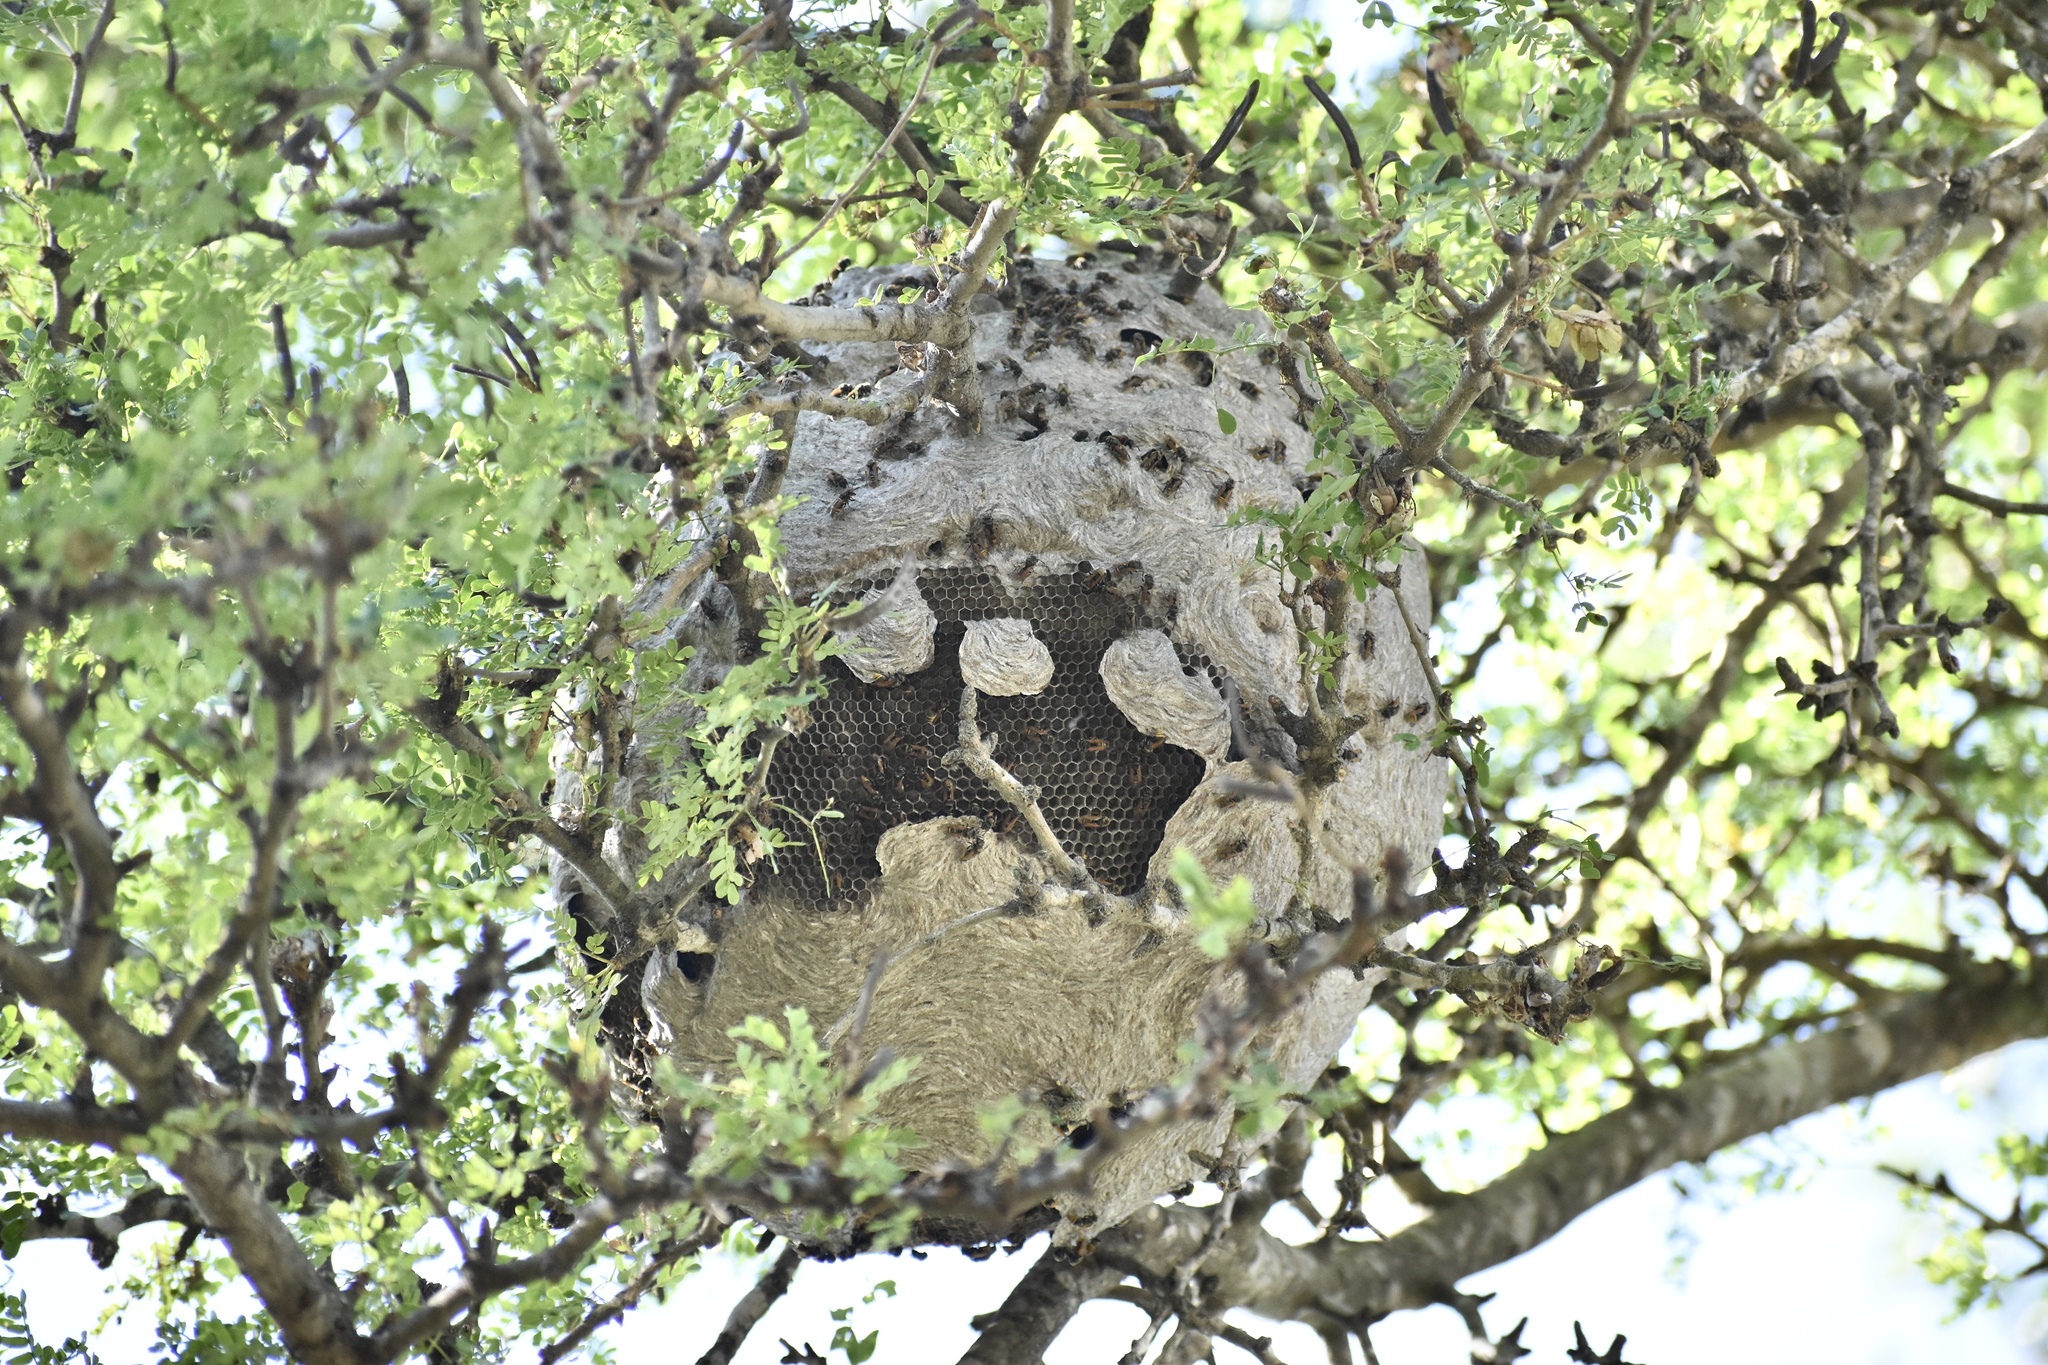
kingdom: Animalia
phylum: Arthropoda
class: Insecta
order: Hymenoptera
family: Vespidae
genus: Brachygastra
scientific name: Brachygastra mellifica
